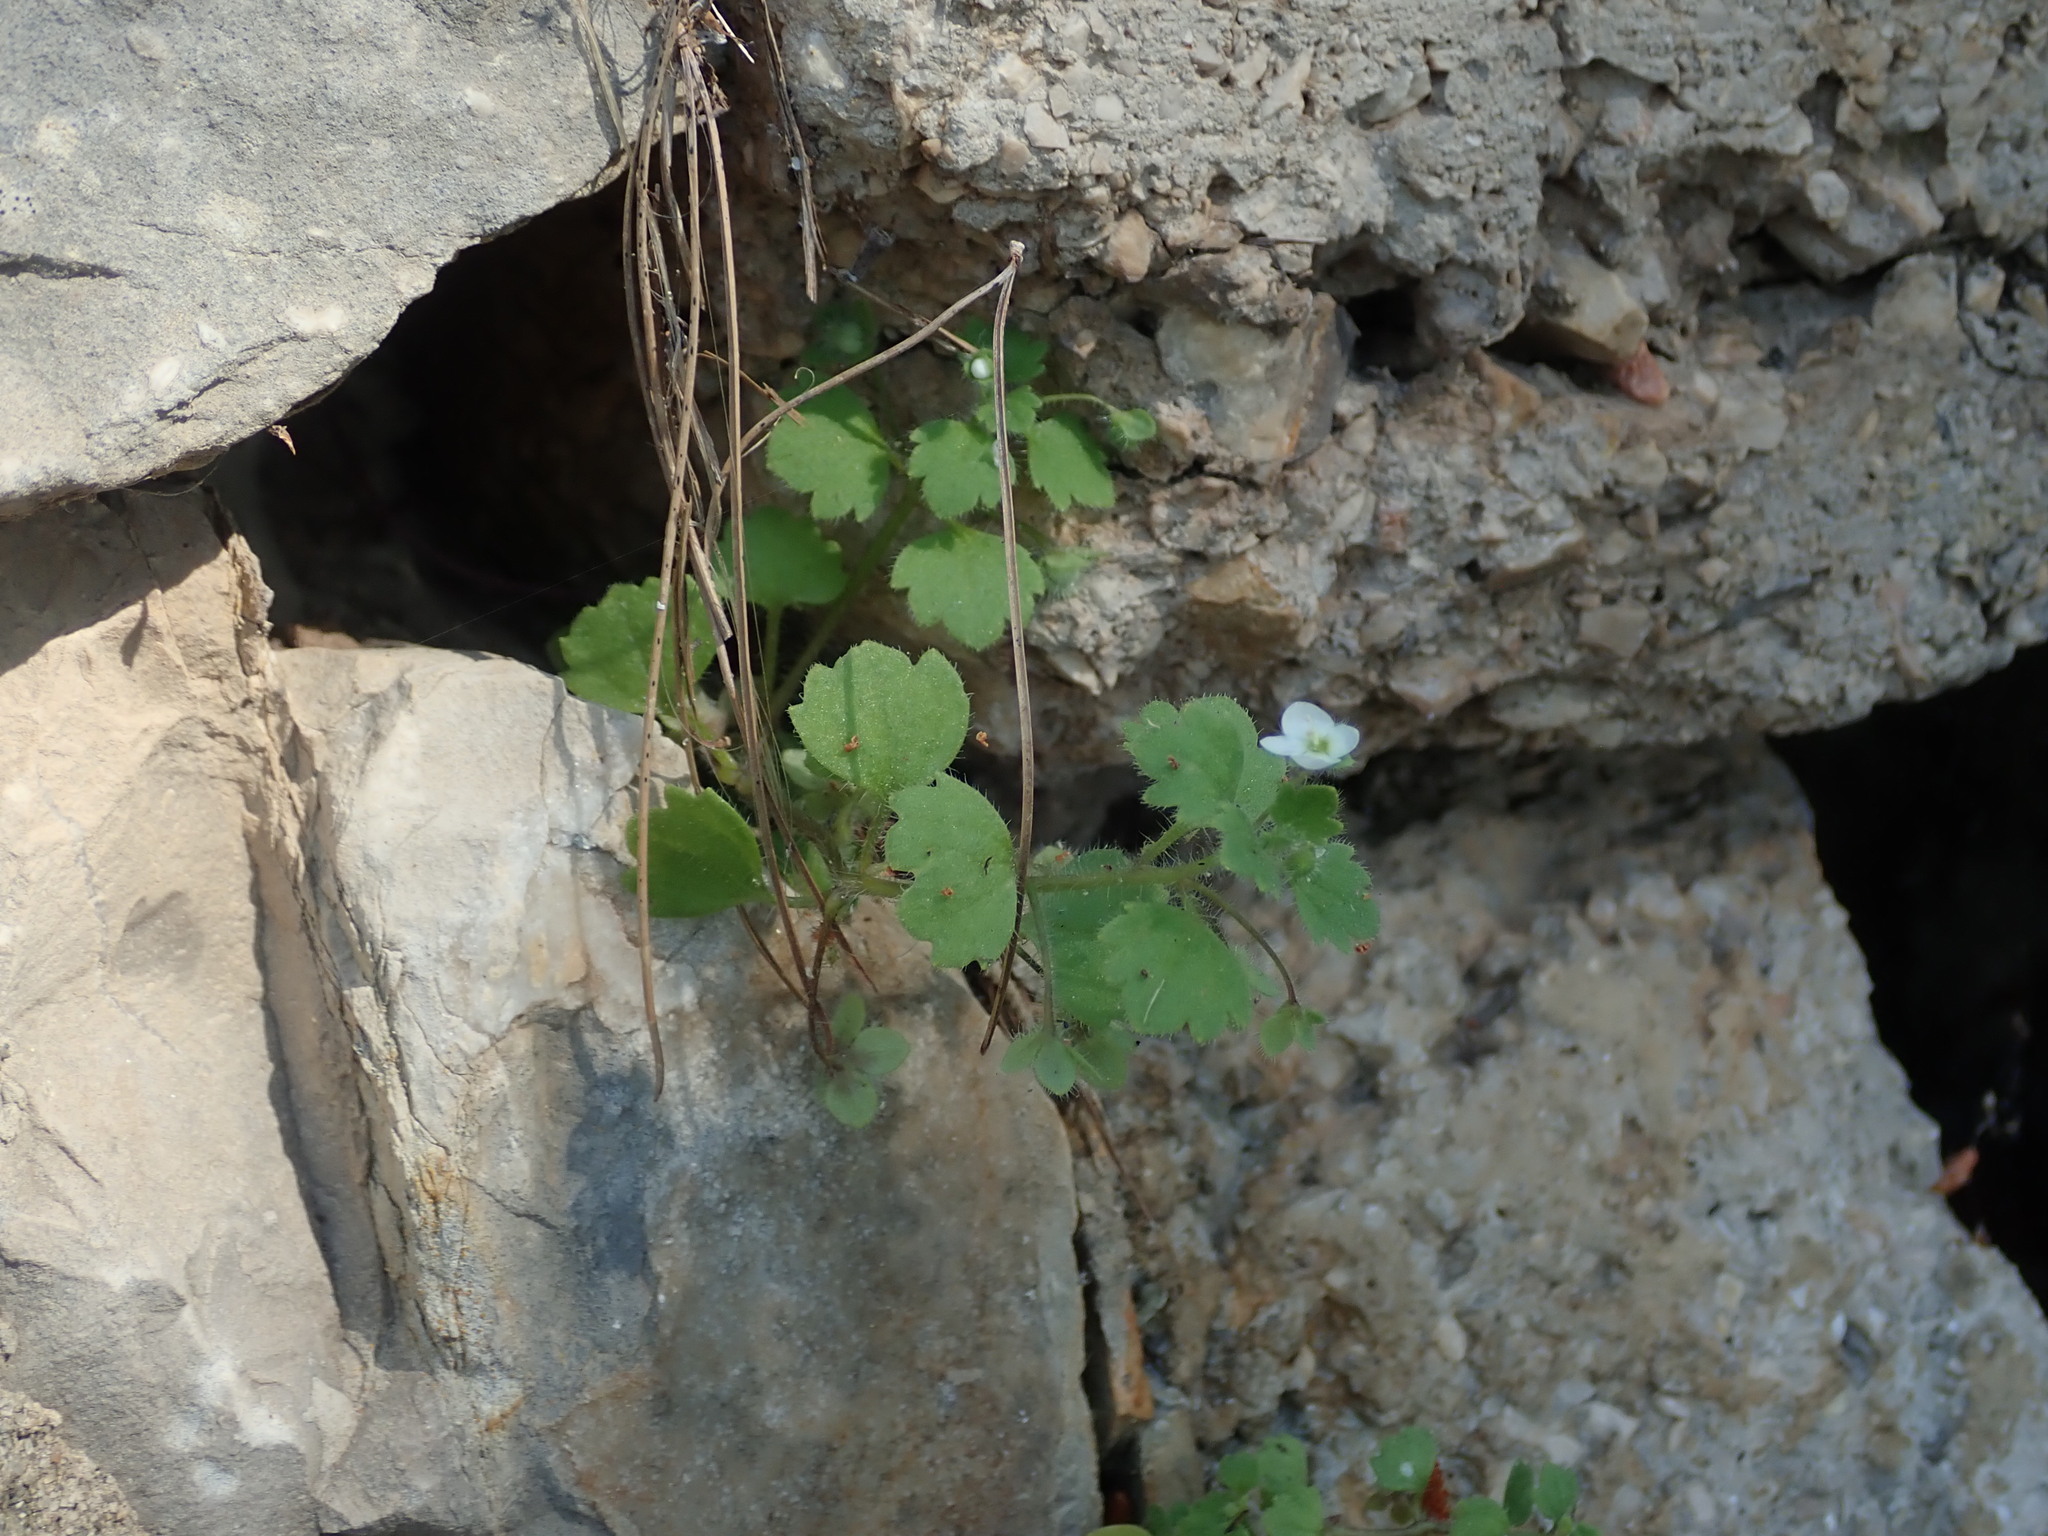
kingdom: Plantae
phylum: Tracheophyta
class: Magnoliopsida
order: Lamiales
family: Plantaginaceae
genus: Veronica
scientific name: Veronica cymbalaria
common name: Pale speedwell
